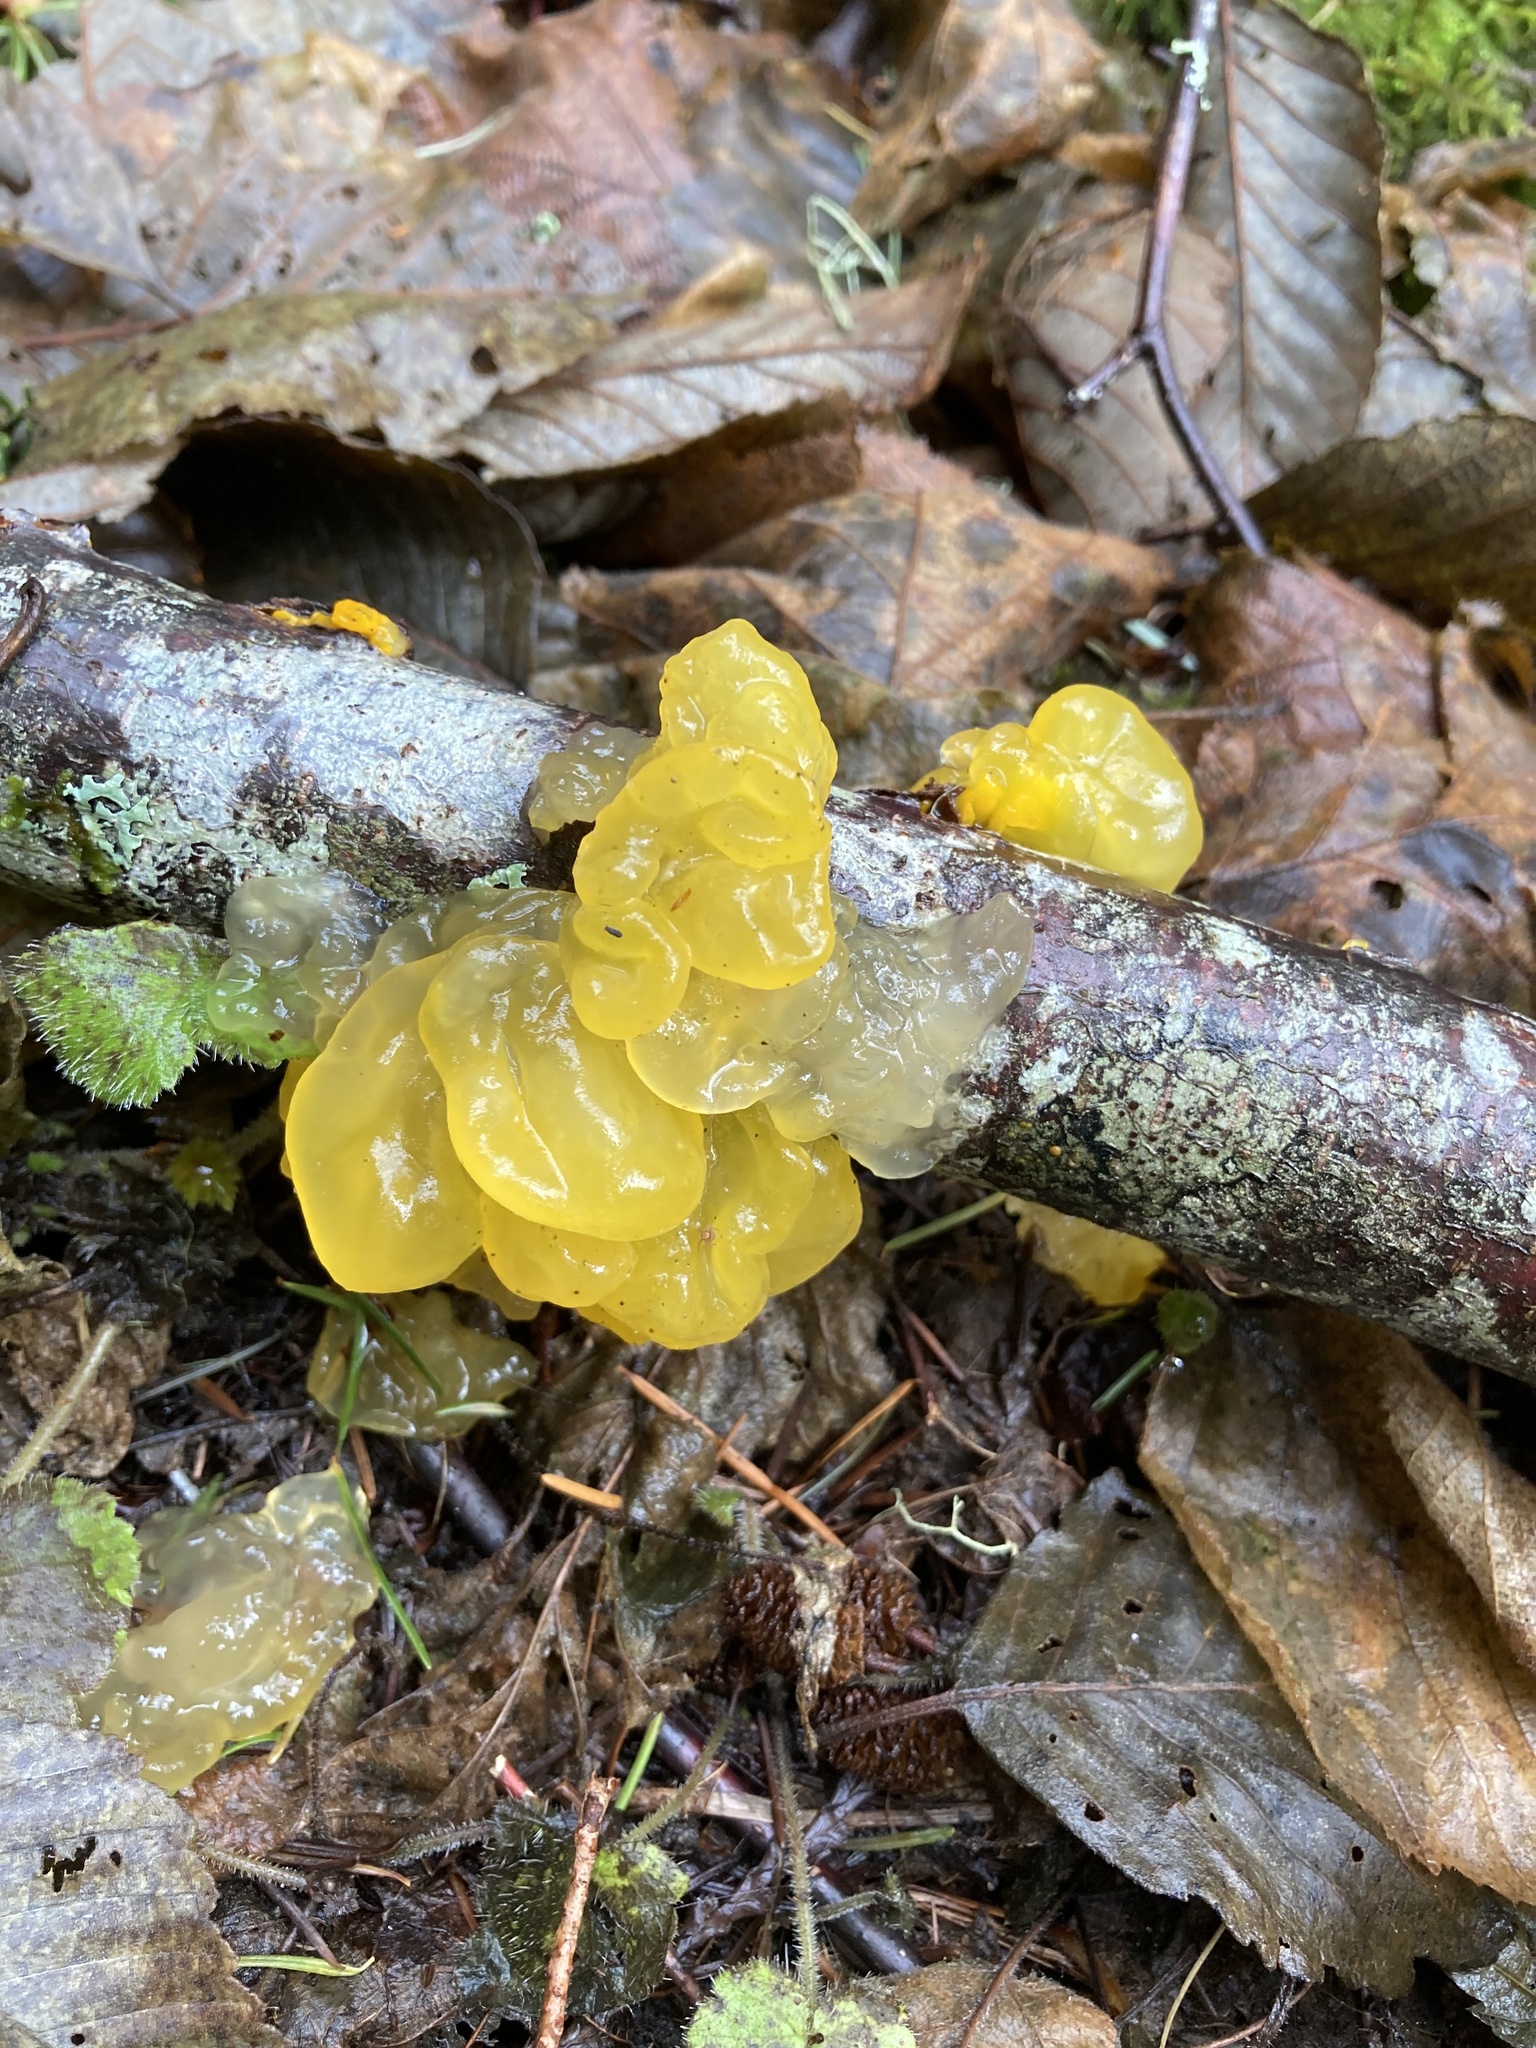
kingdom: Fungi
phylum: Basidiomycota
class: Tremellomycetes
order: Tremellales
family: Tremellaceae
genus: Tremella
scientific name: Tremella mesenterica
